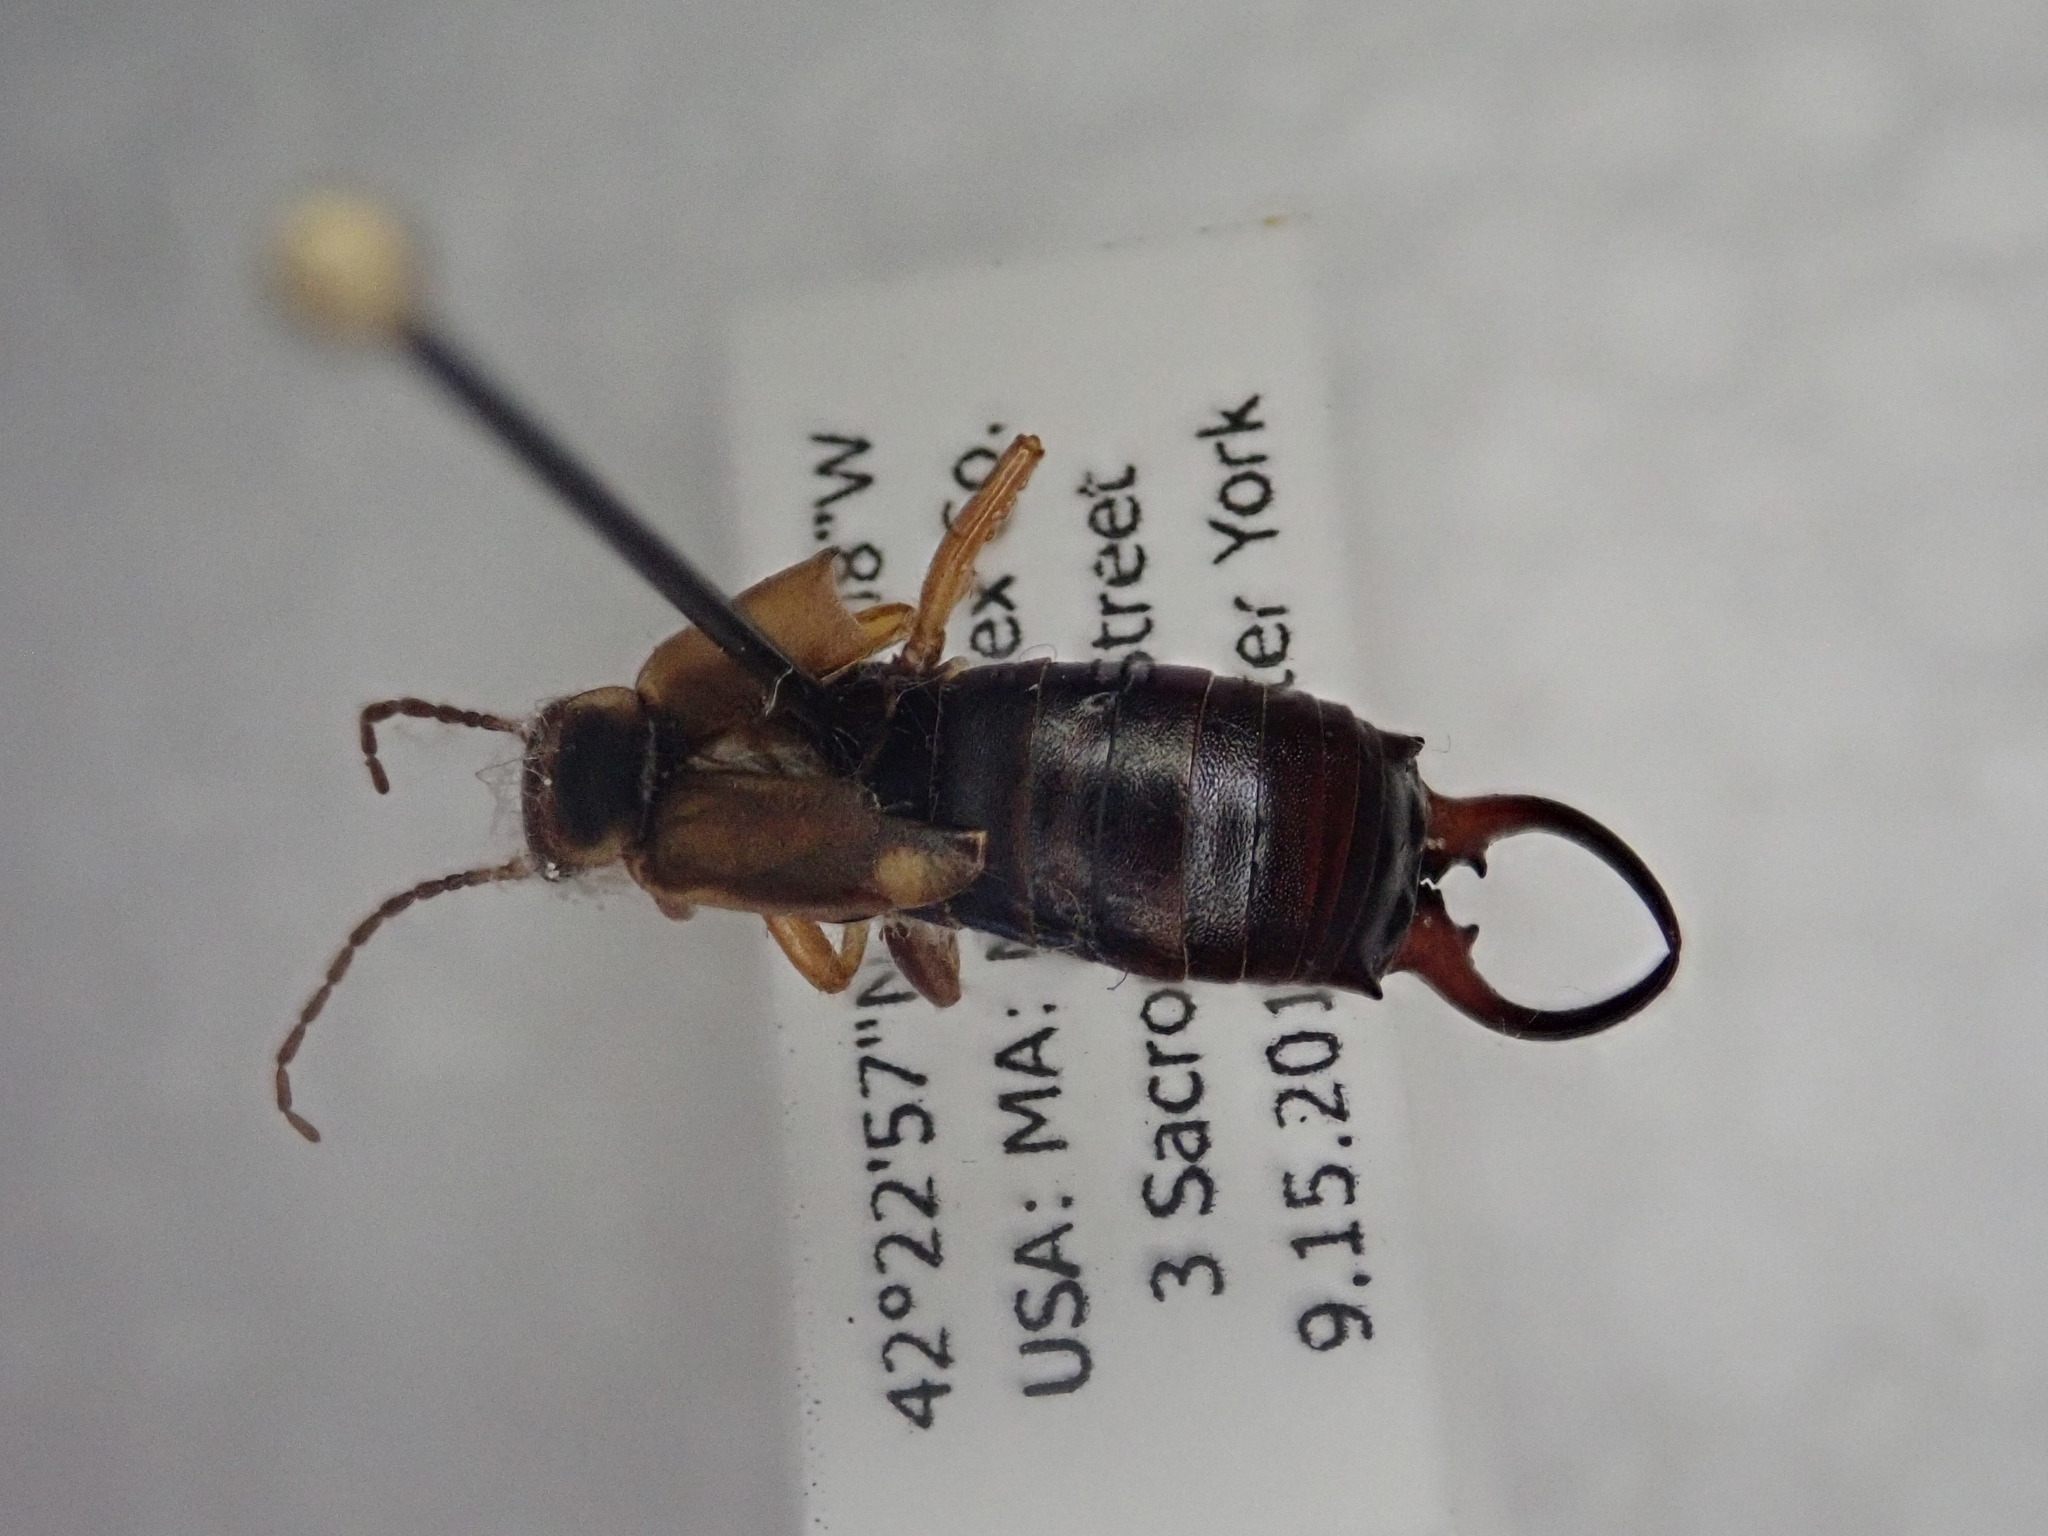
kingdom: Animalia
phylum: Arthropoda
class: Insecta
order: Dermaptera
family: Forficulidae
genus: Forficula
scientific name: Forficula
